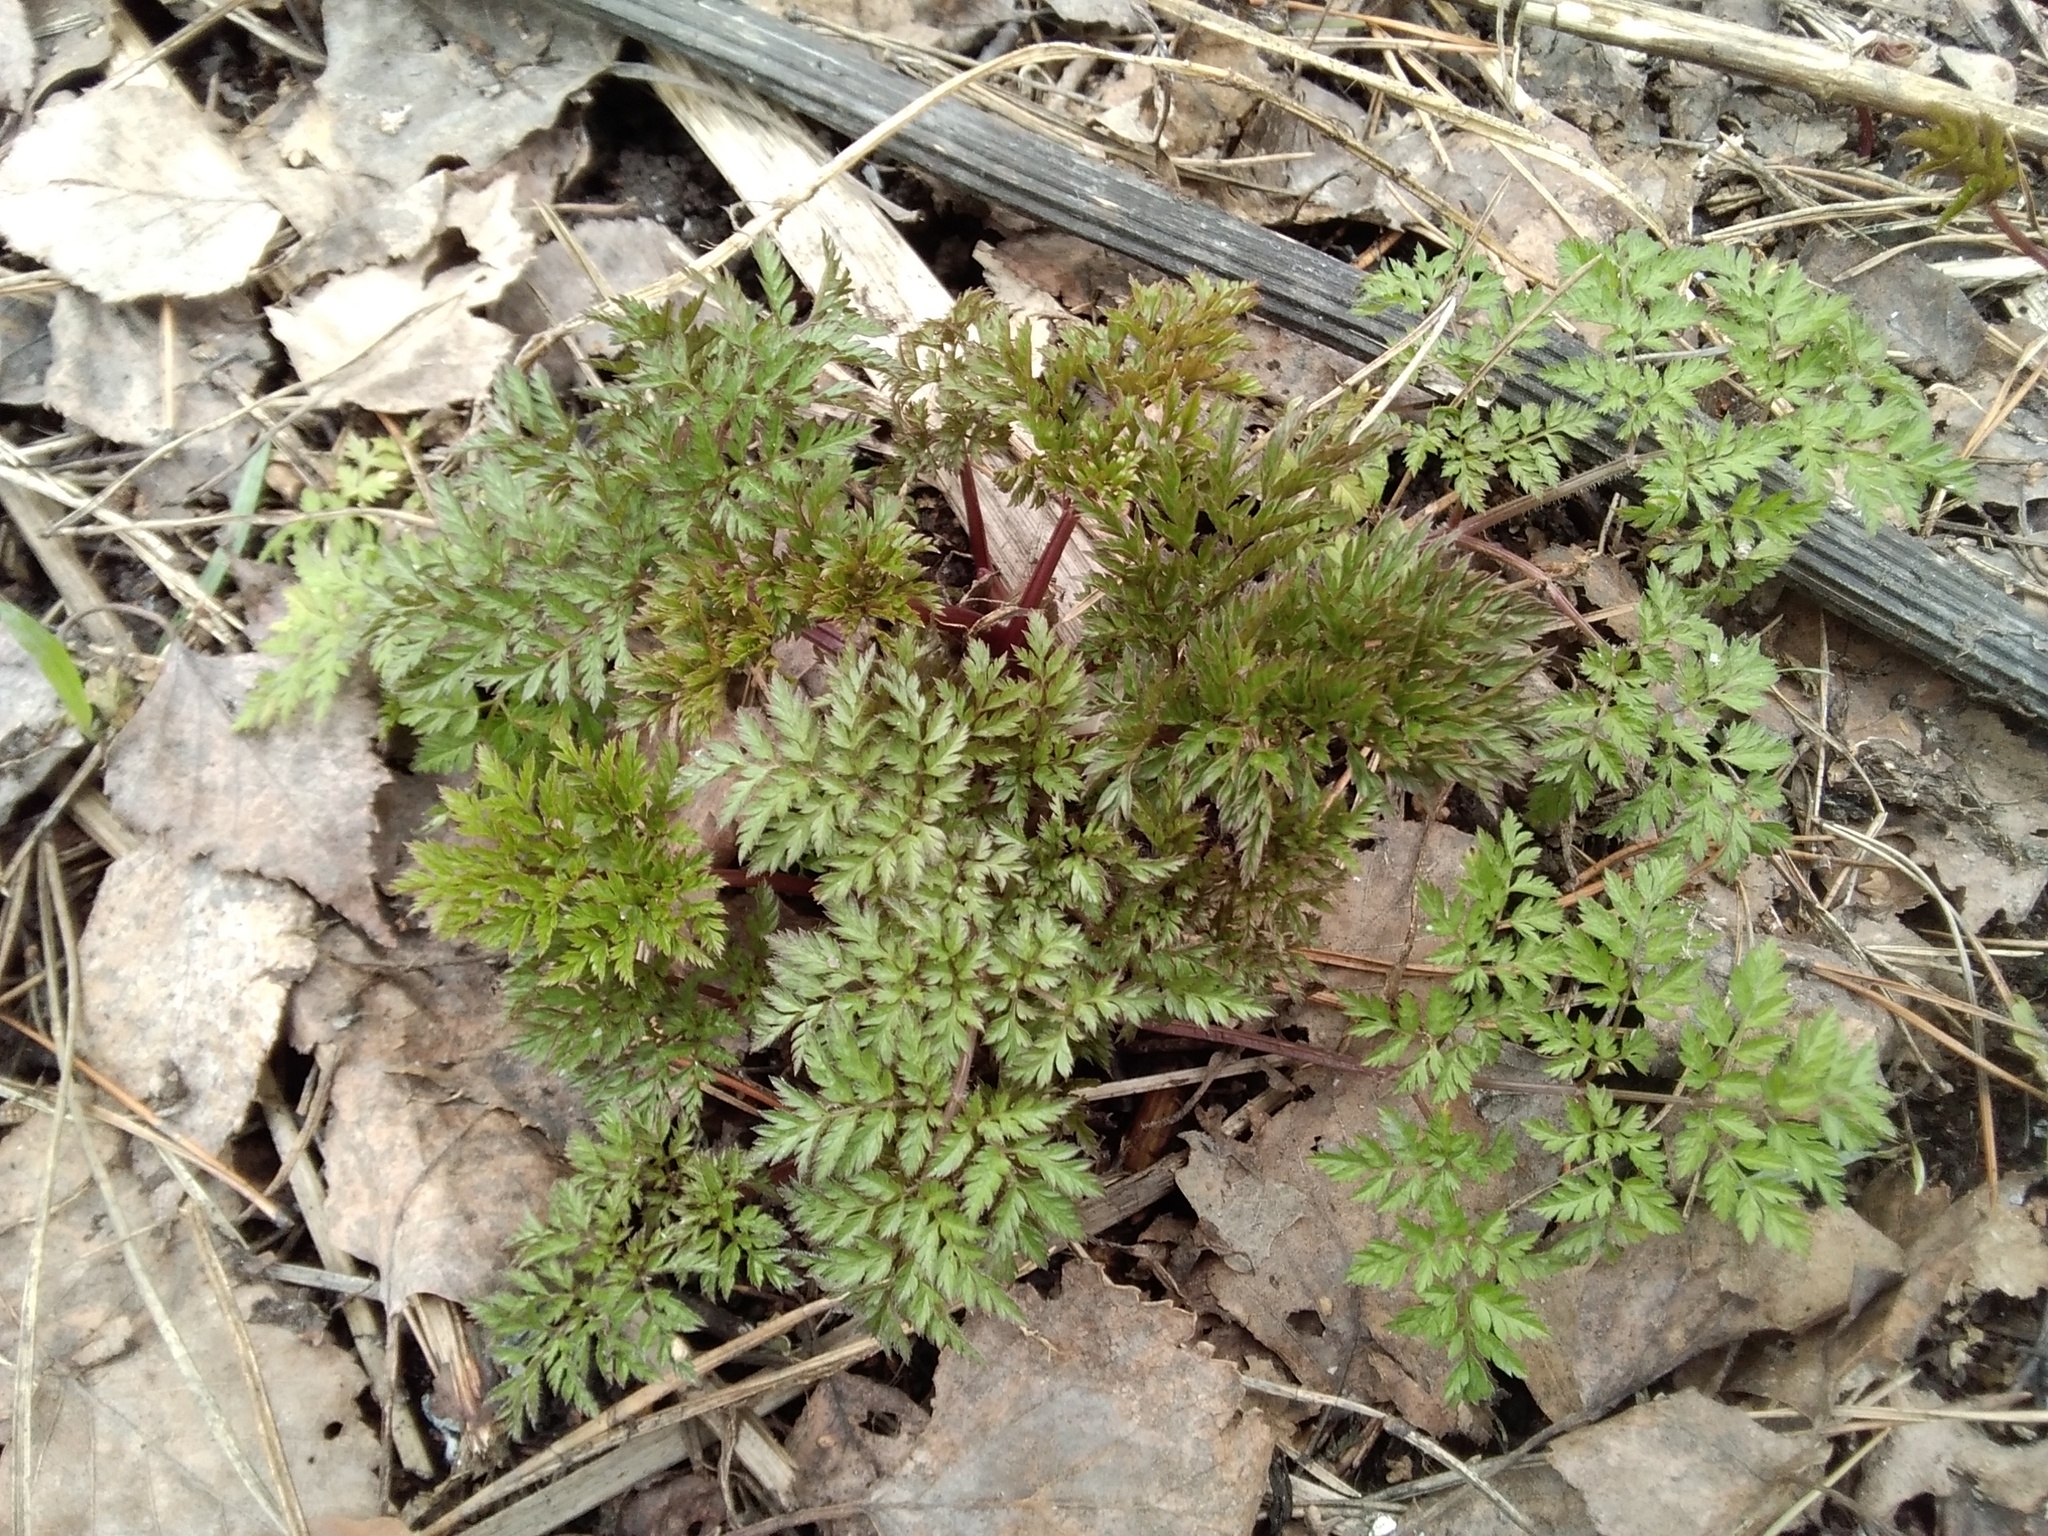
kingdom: Plantae
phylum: Tracheophyta
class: Magnoliopsida
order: Apiales
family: Apiaceae
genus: Anthriscus
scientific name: Anthriscus sylvestris
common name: Cow parsley
